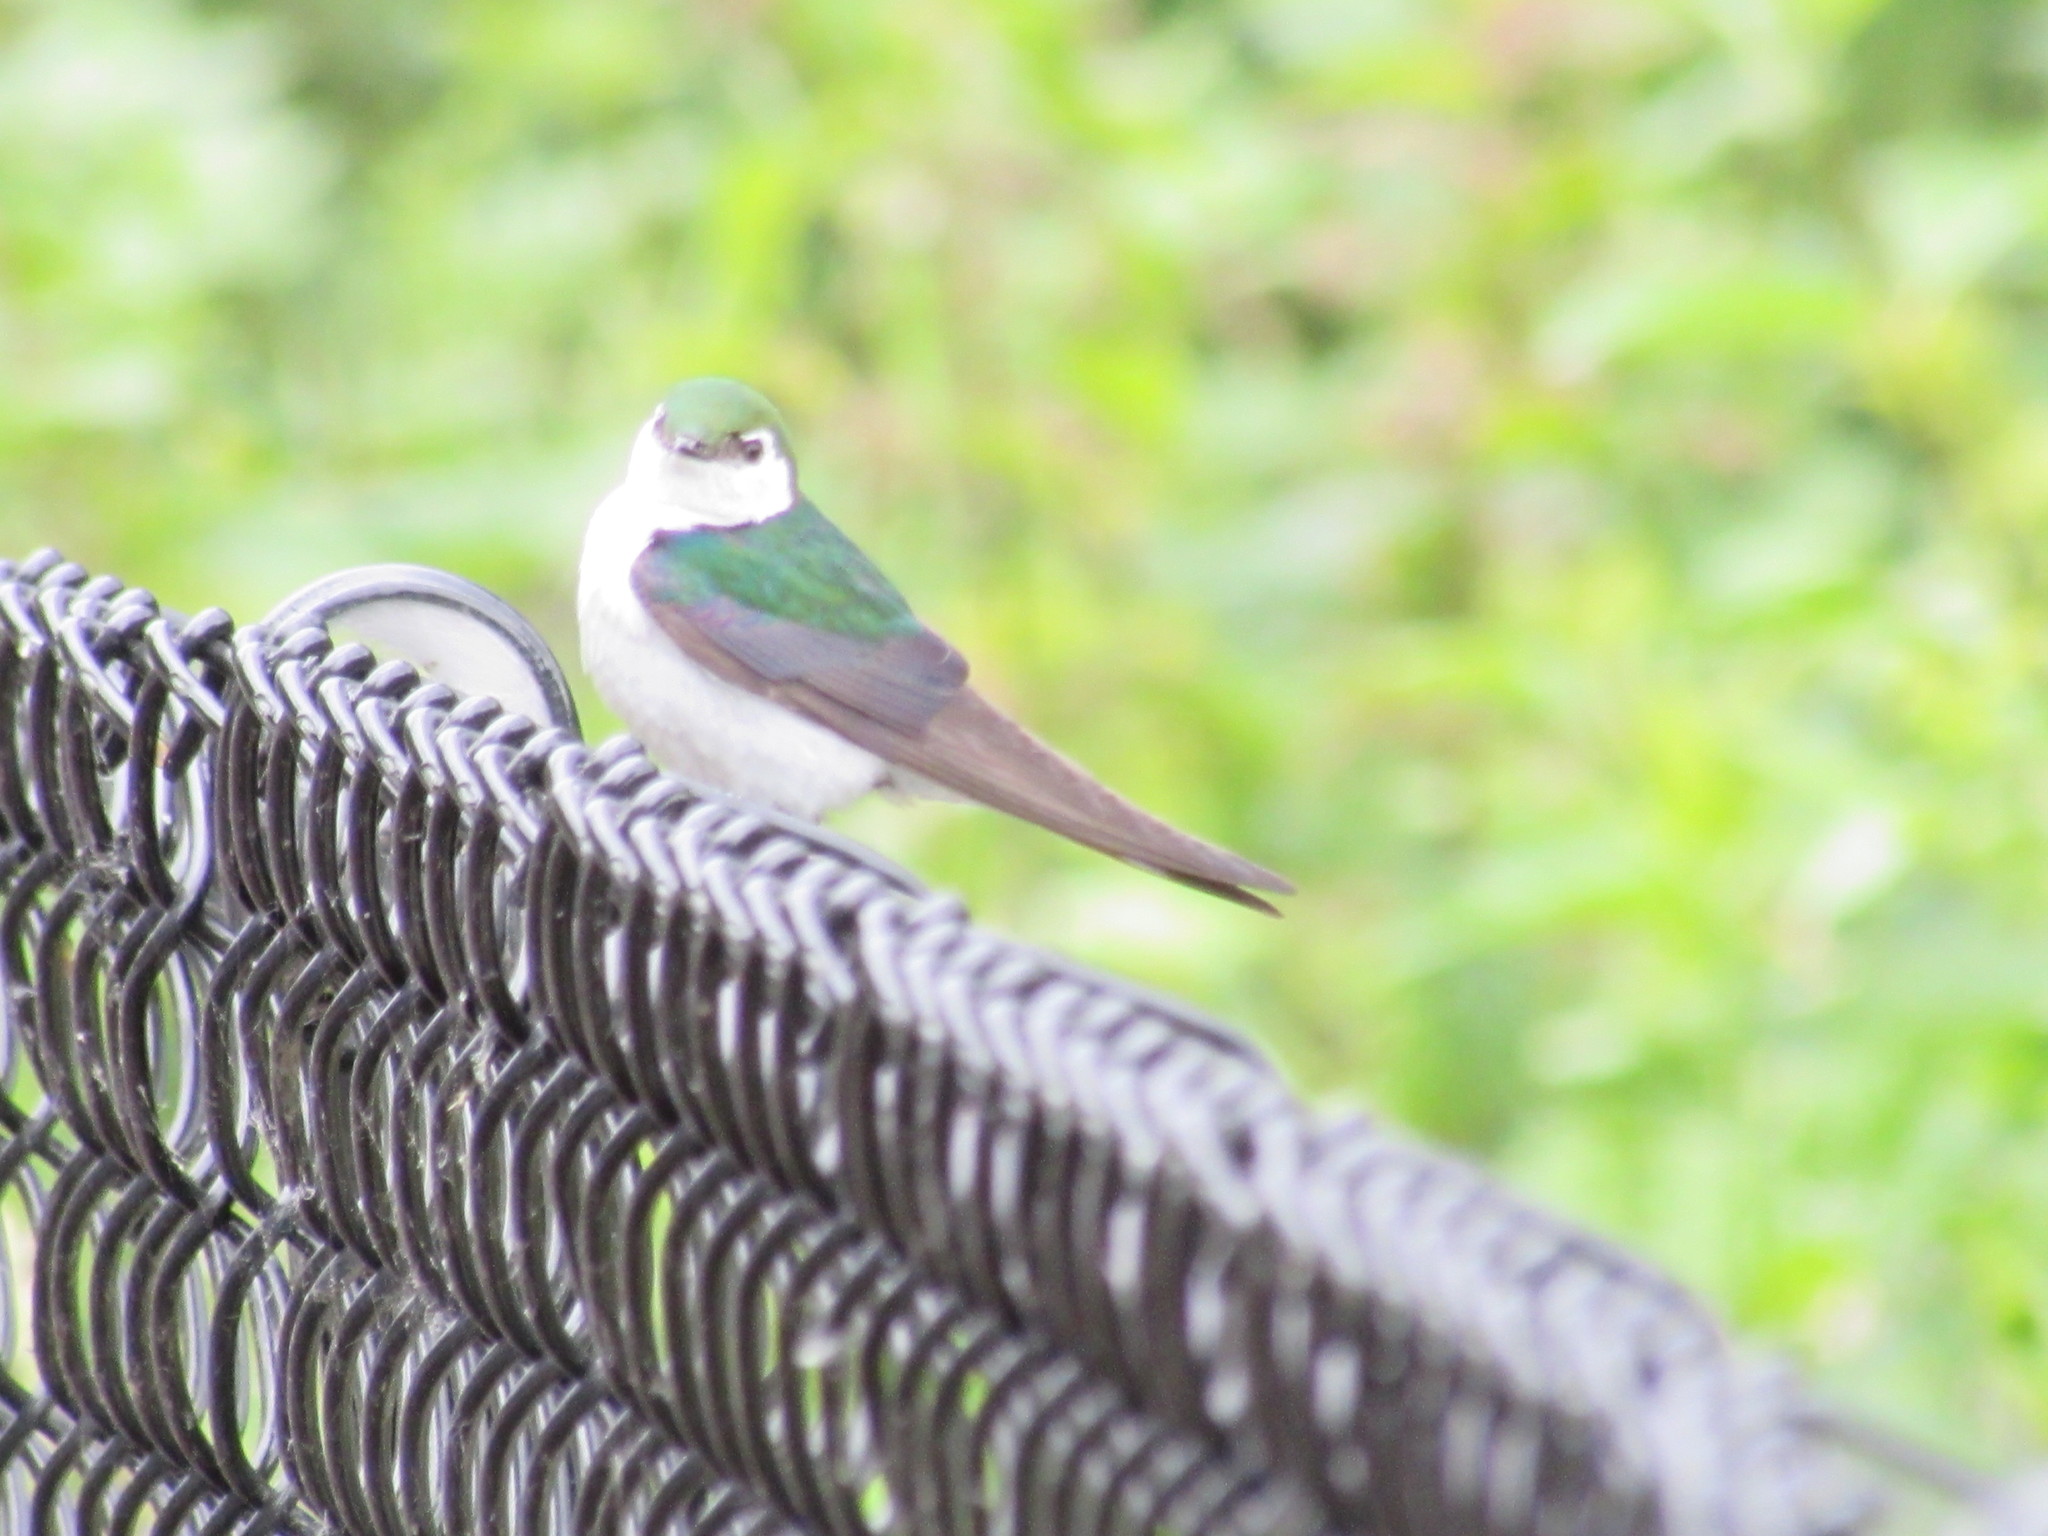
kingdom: Animalia
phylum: Chordata
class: Aves
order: Passeriformes
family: Hirundinidae
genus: Tachycineta
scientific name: Tachycineta thalassina
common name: Violet-green swallow
